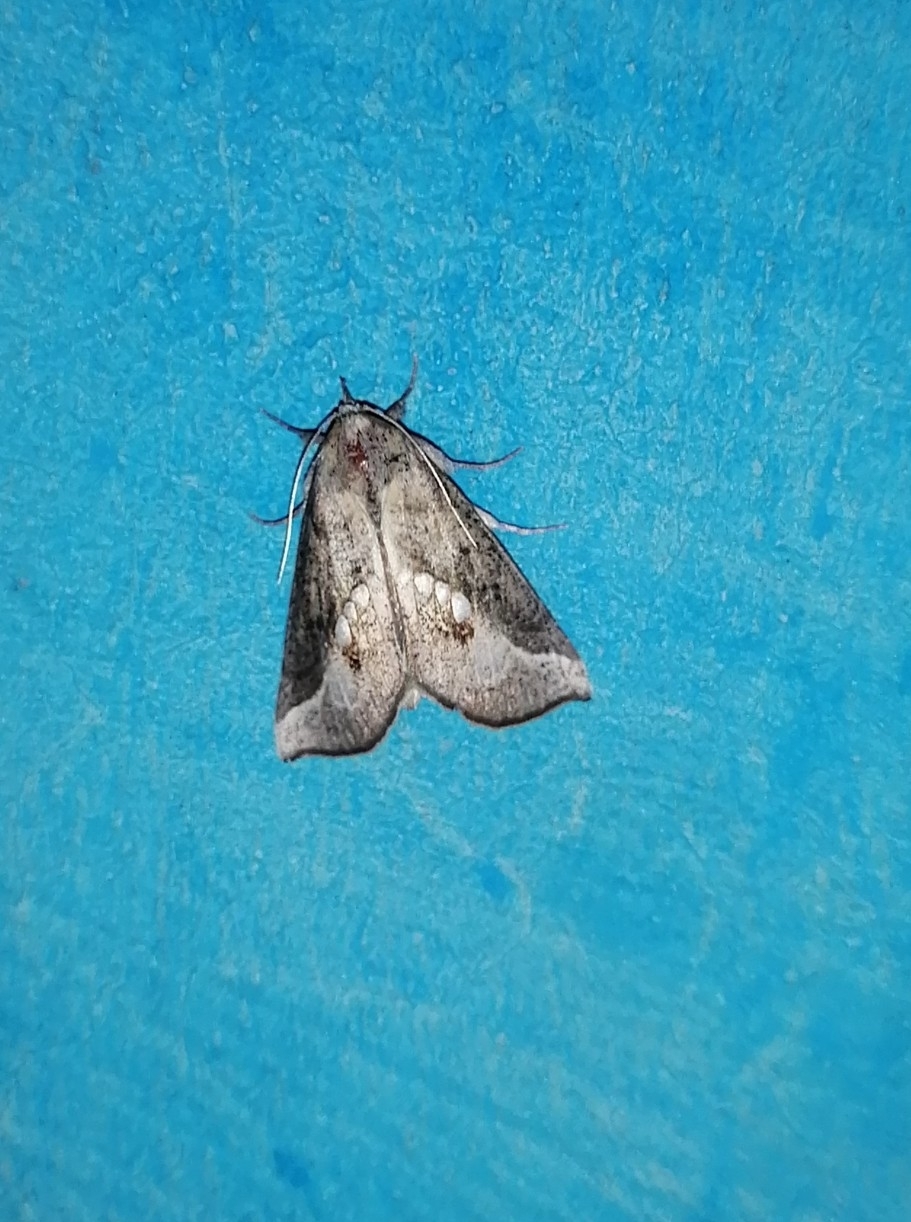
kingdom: Animalia
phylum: Arthropoda
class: Insecta
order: Lepidoptera
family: Erebidae
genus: Hypsoropha
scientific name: Hypsoropha adeona
